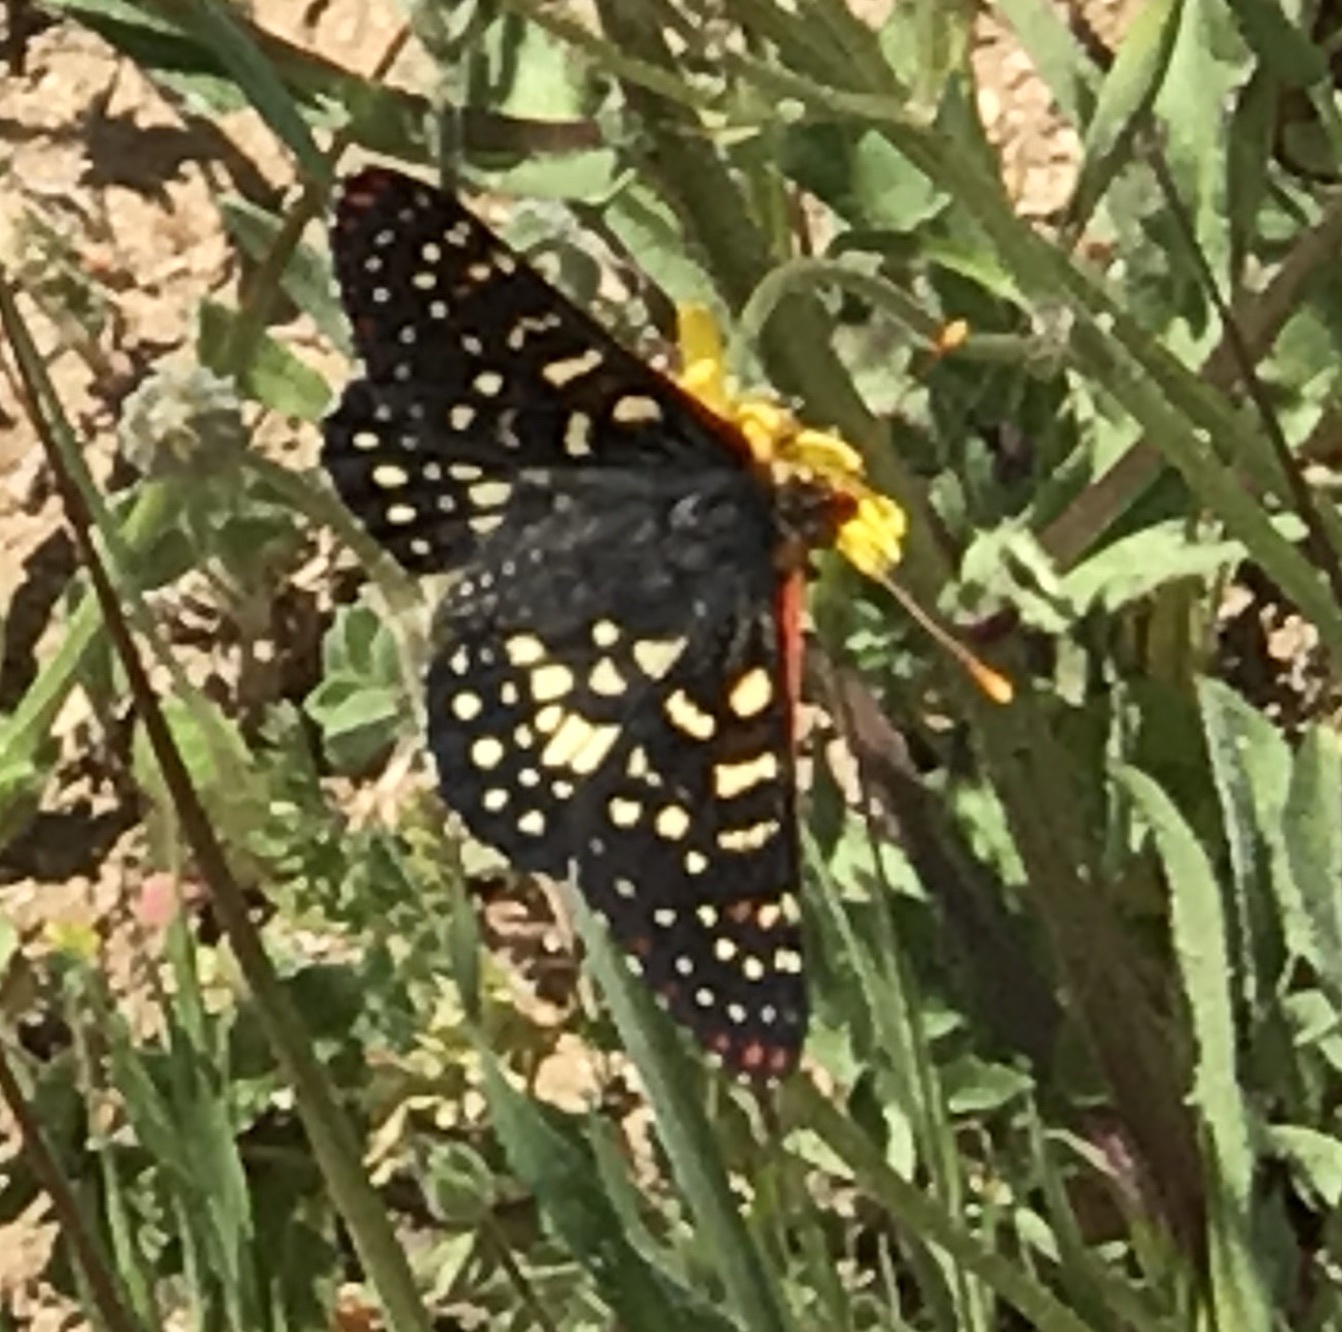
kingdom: Animalia
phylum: Arthropoda
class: Insecta
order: Lepidoptera
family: Nymphalidae
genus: Occidryas
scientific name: Occidryas chalcedona
